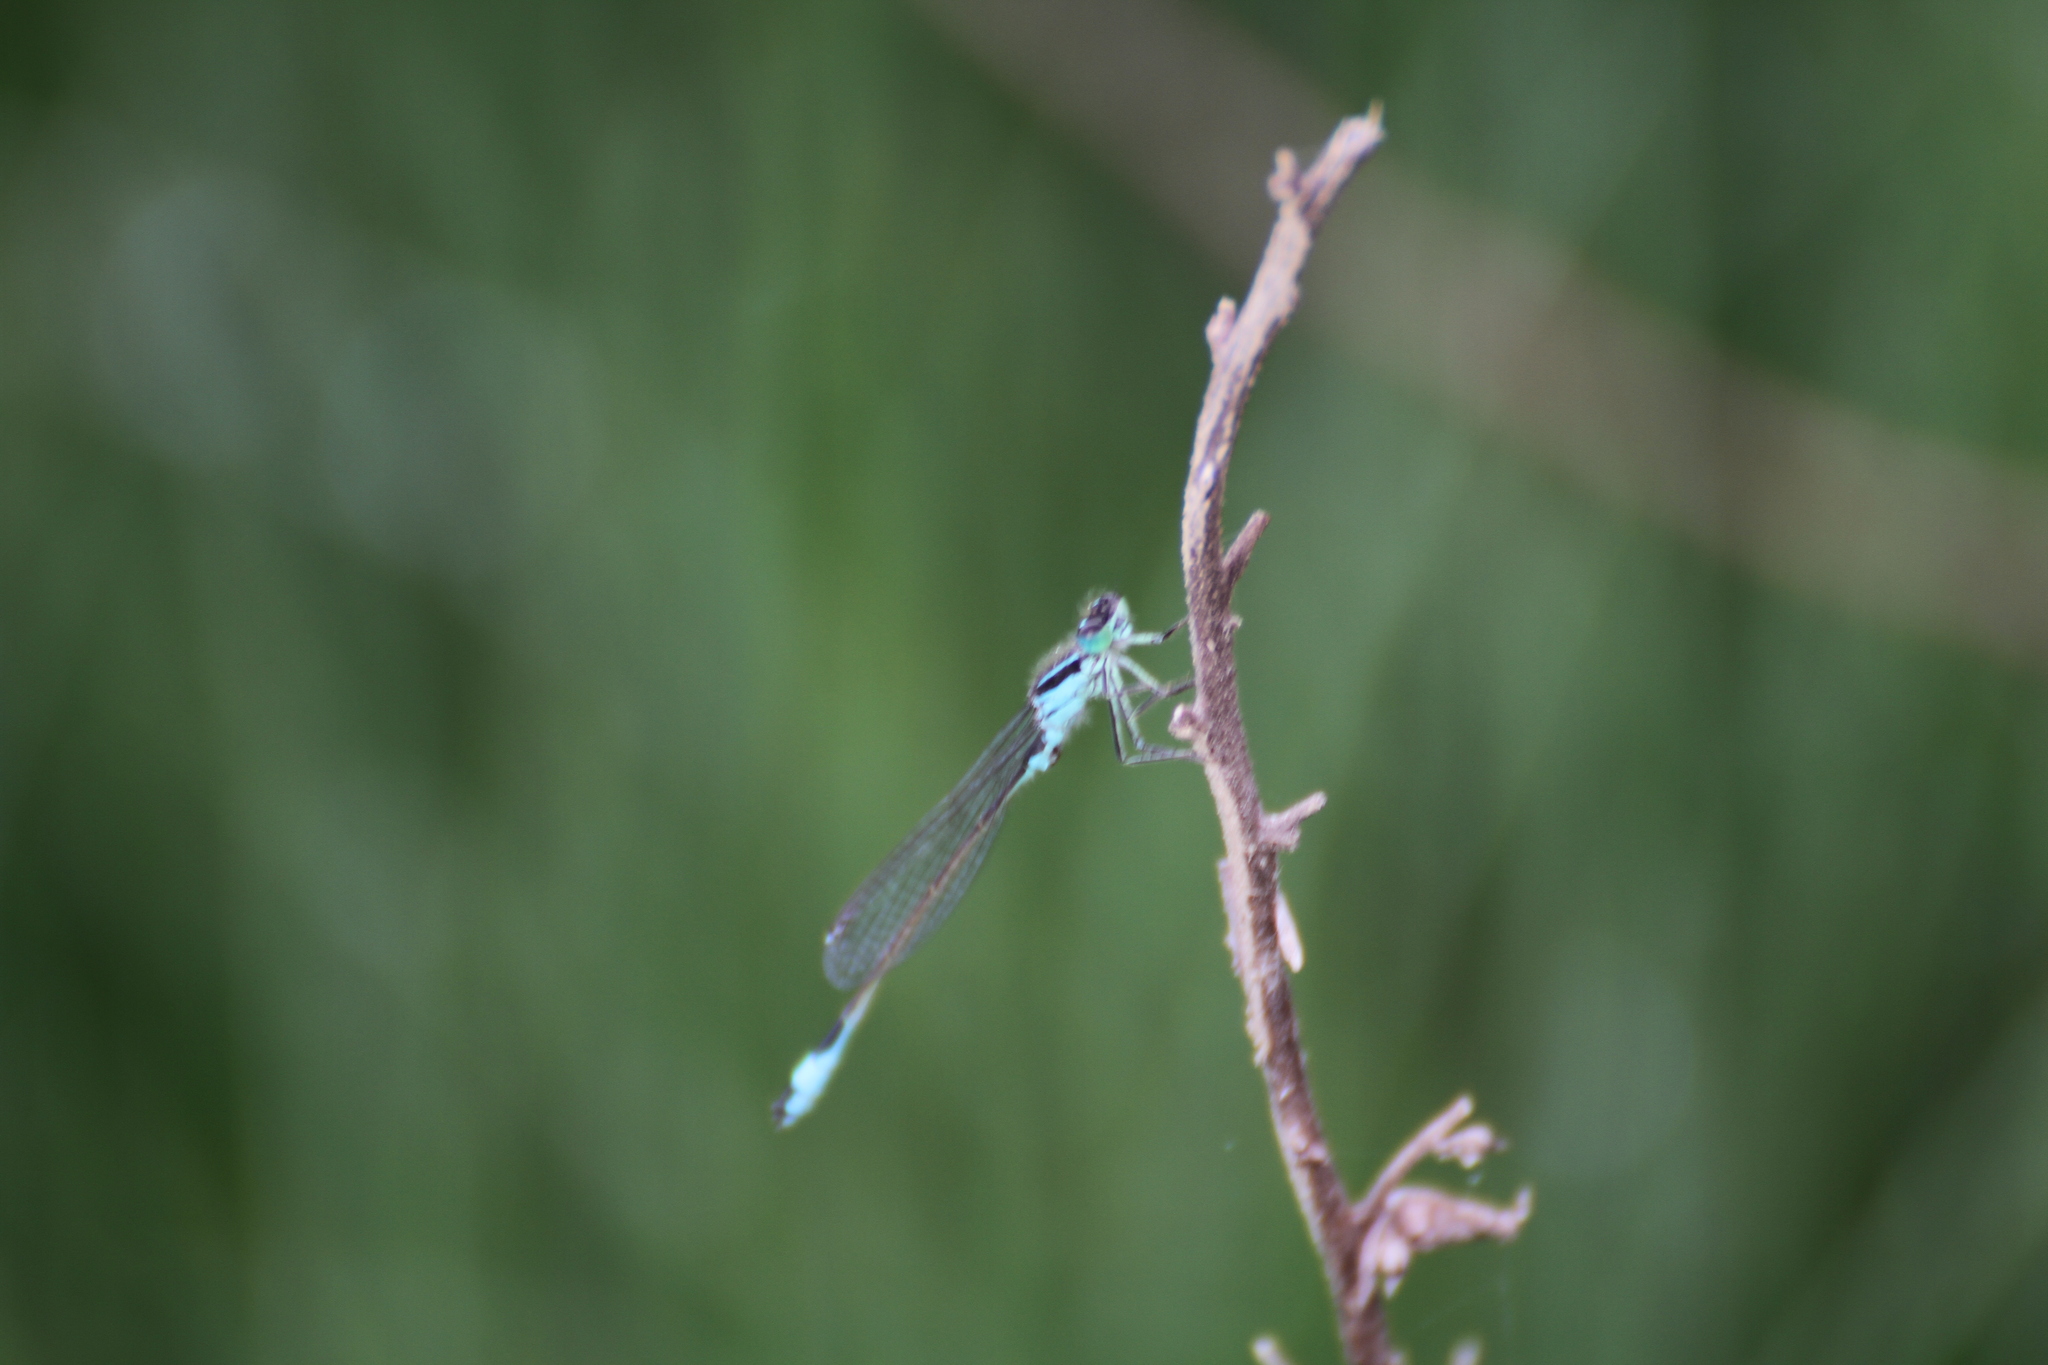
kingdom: Animalia
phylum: Arthropoda
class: Insecta
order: Odonata
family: Coenagrionidae
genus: Ischnura
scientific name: Ischnura elegans
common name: Blue-tailed damselfly
